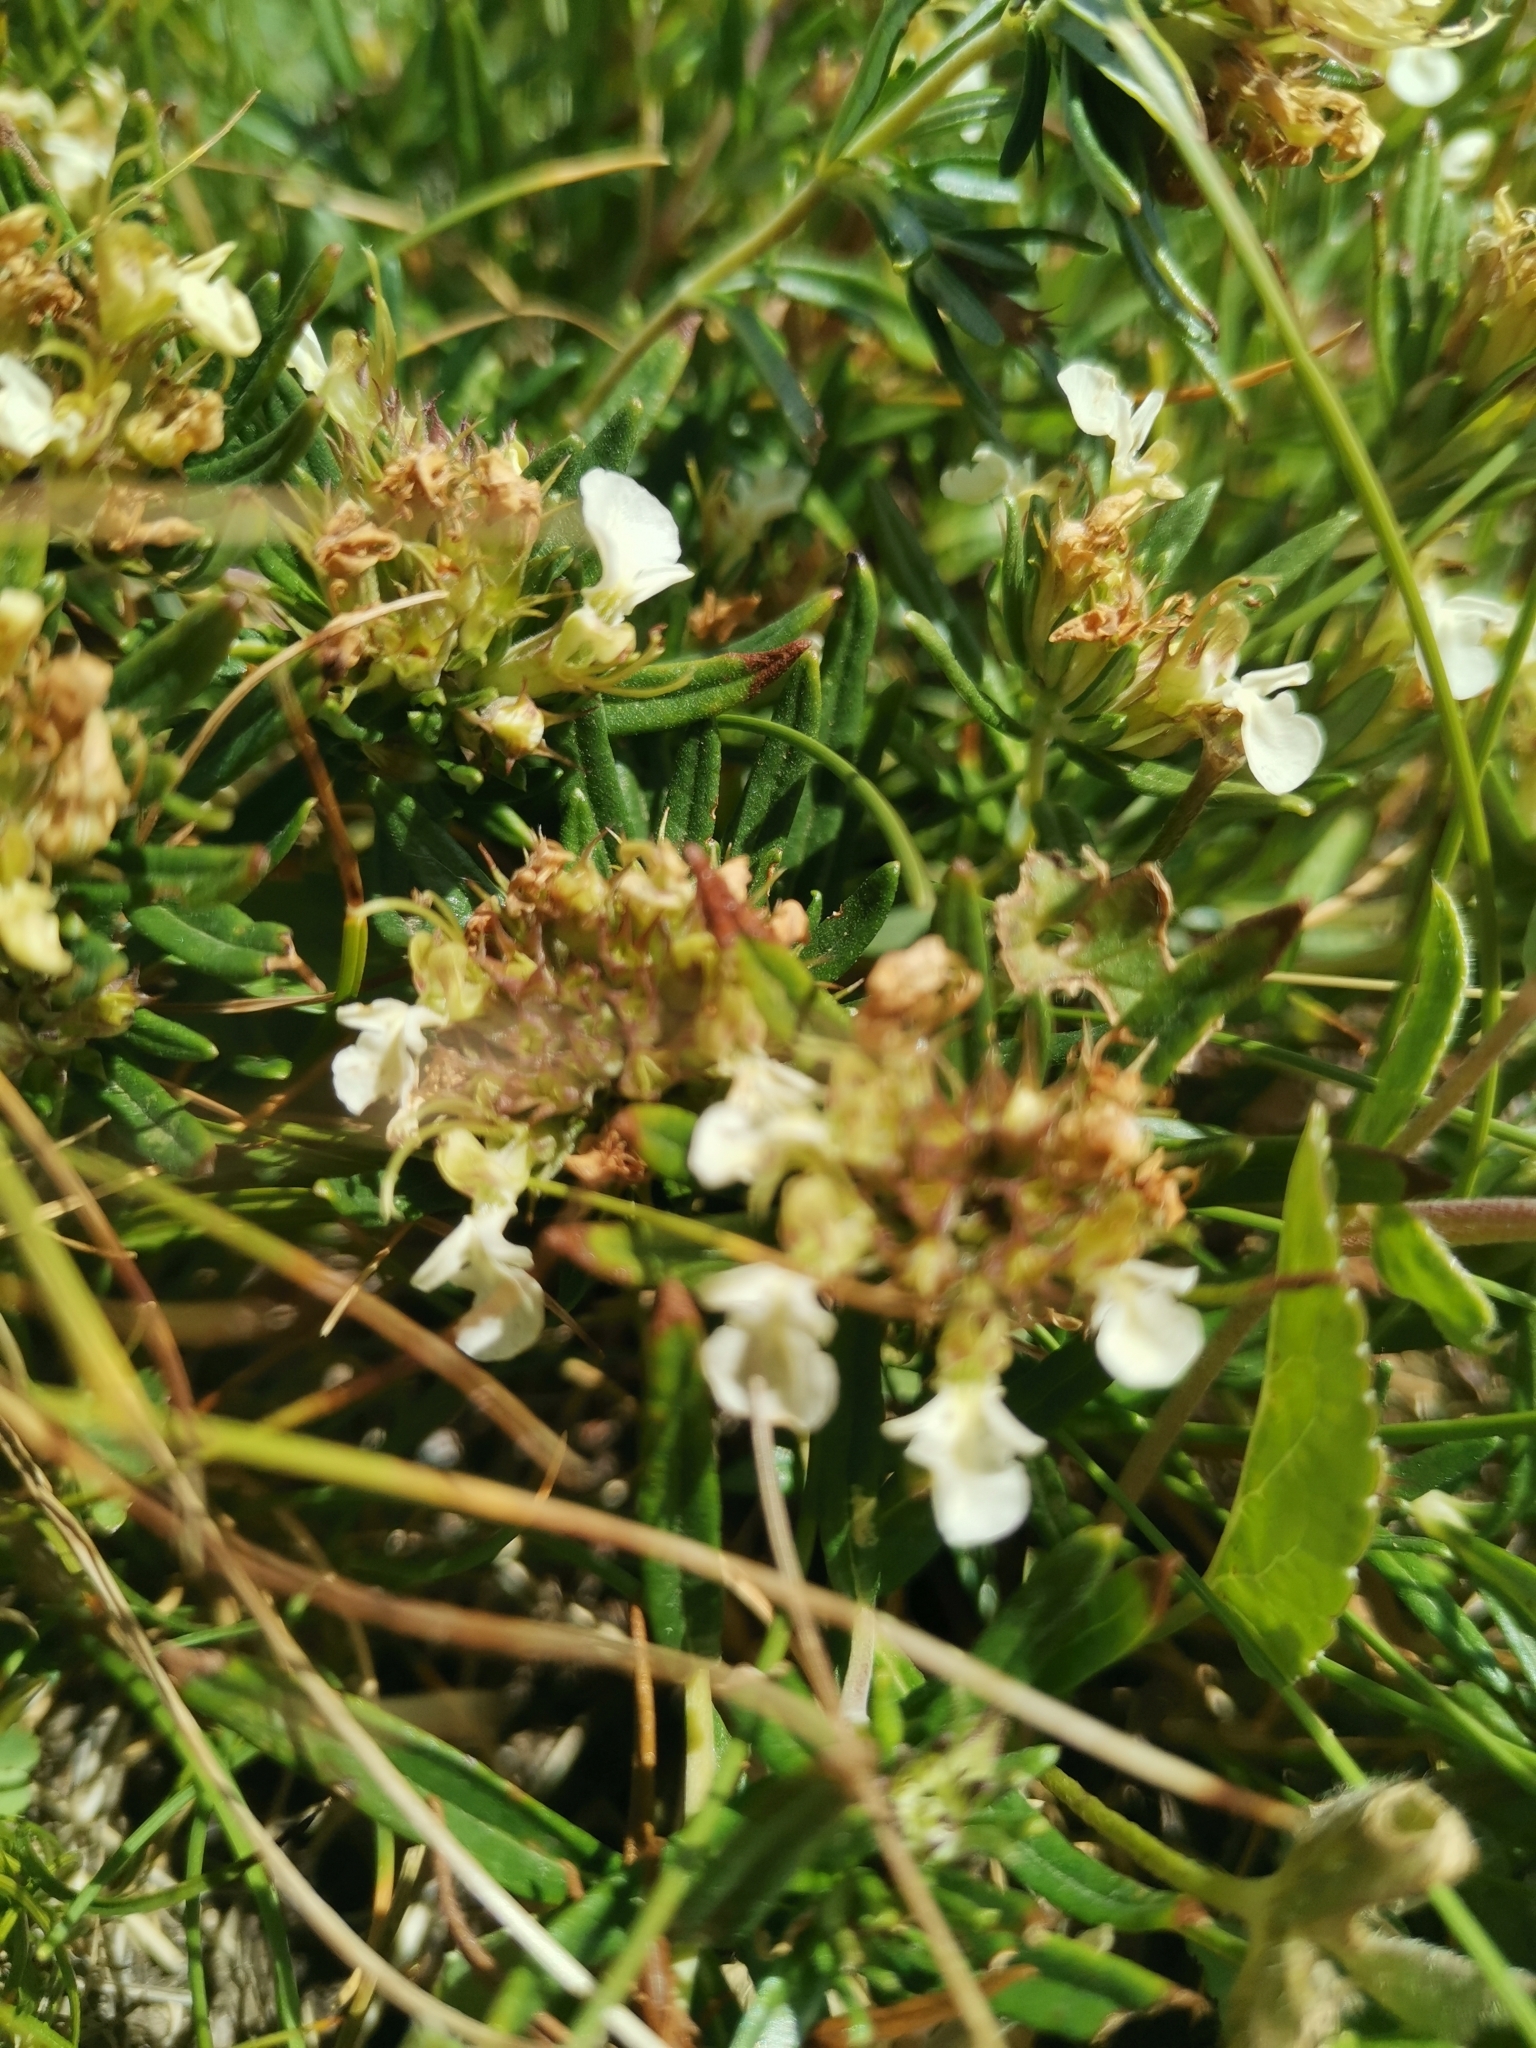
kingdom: Plantae
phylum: Tracheophyta
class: Magnoliopsida
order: Lamiales
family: Lamiaceae
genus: Teucrium
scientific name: Teucrium montanum
